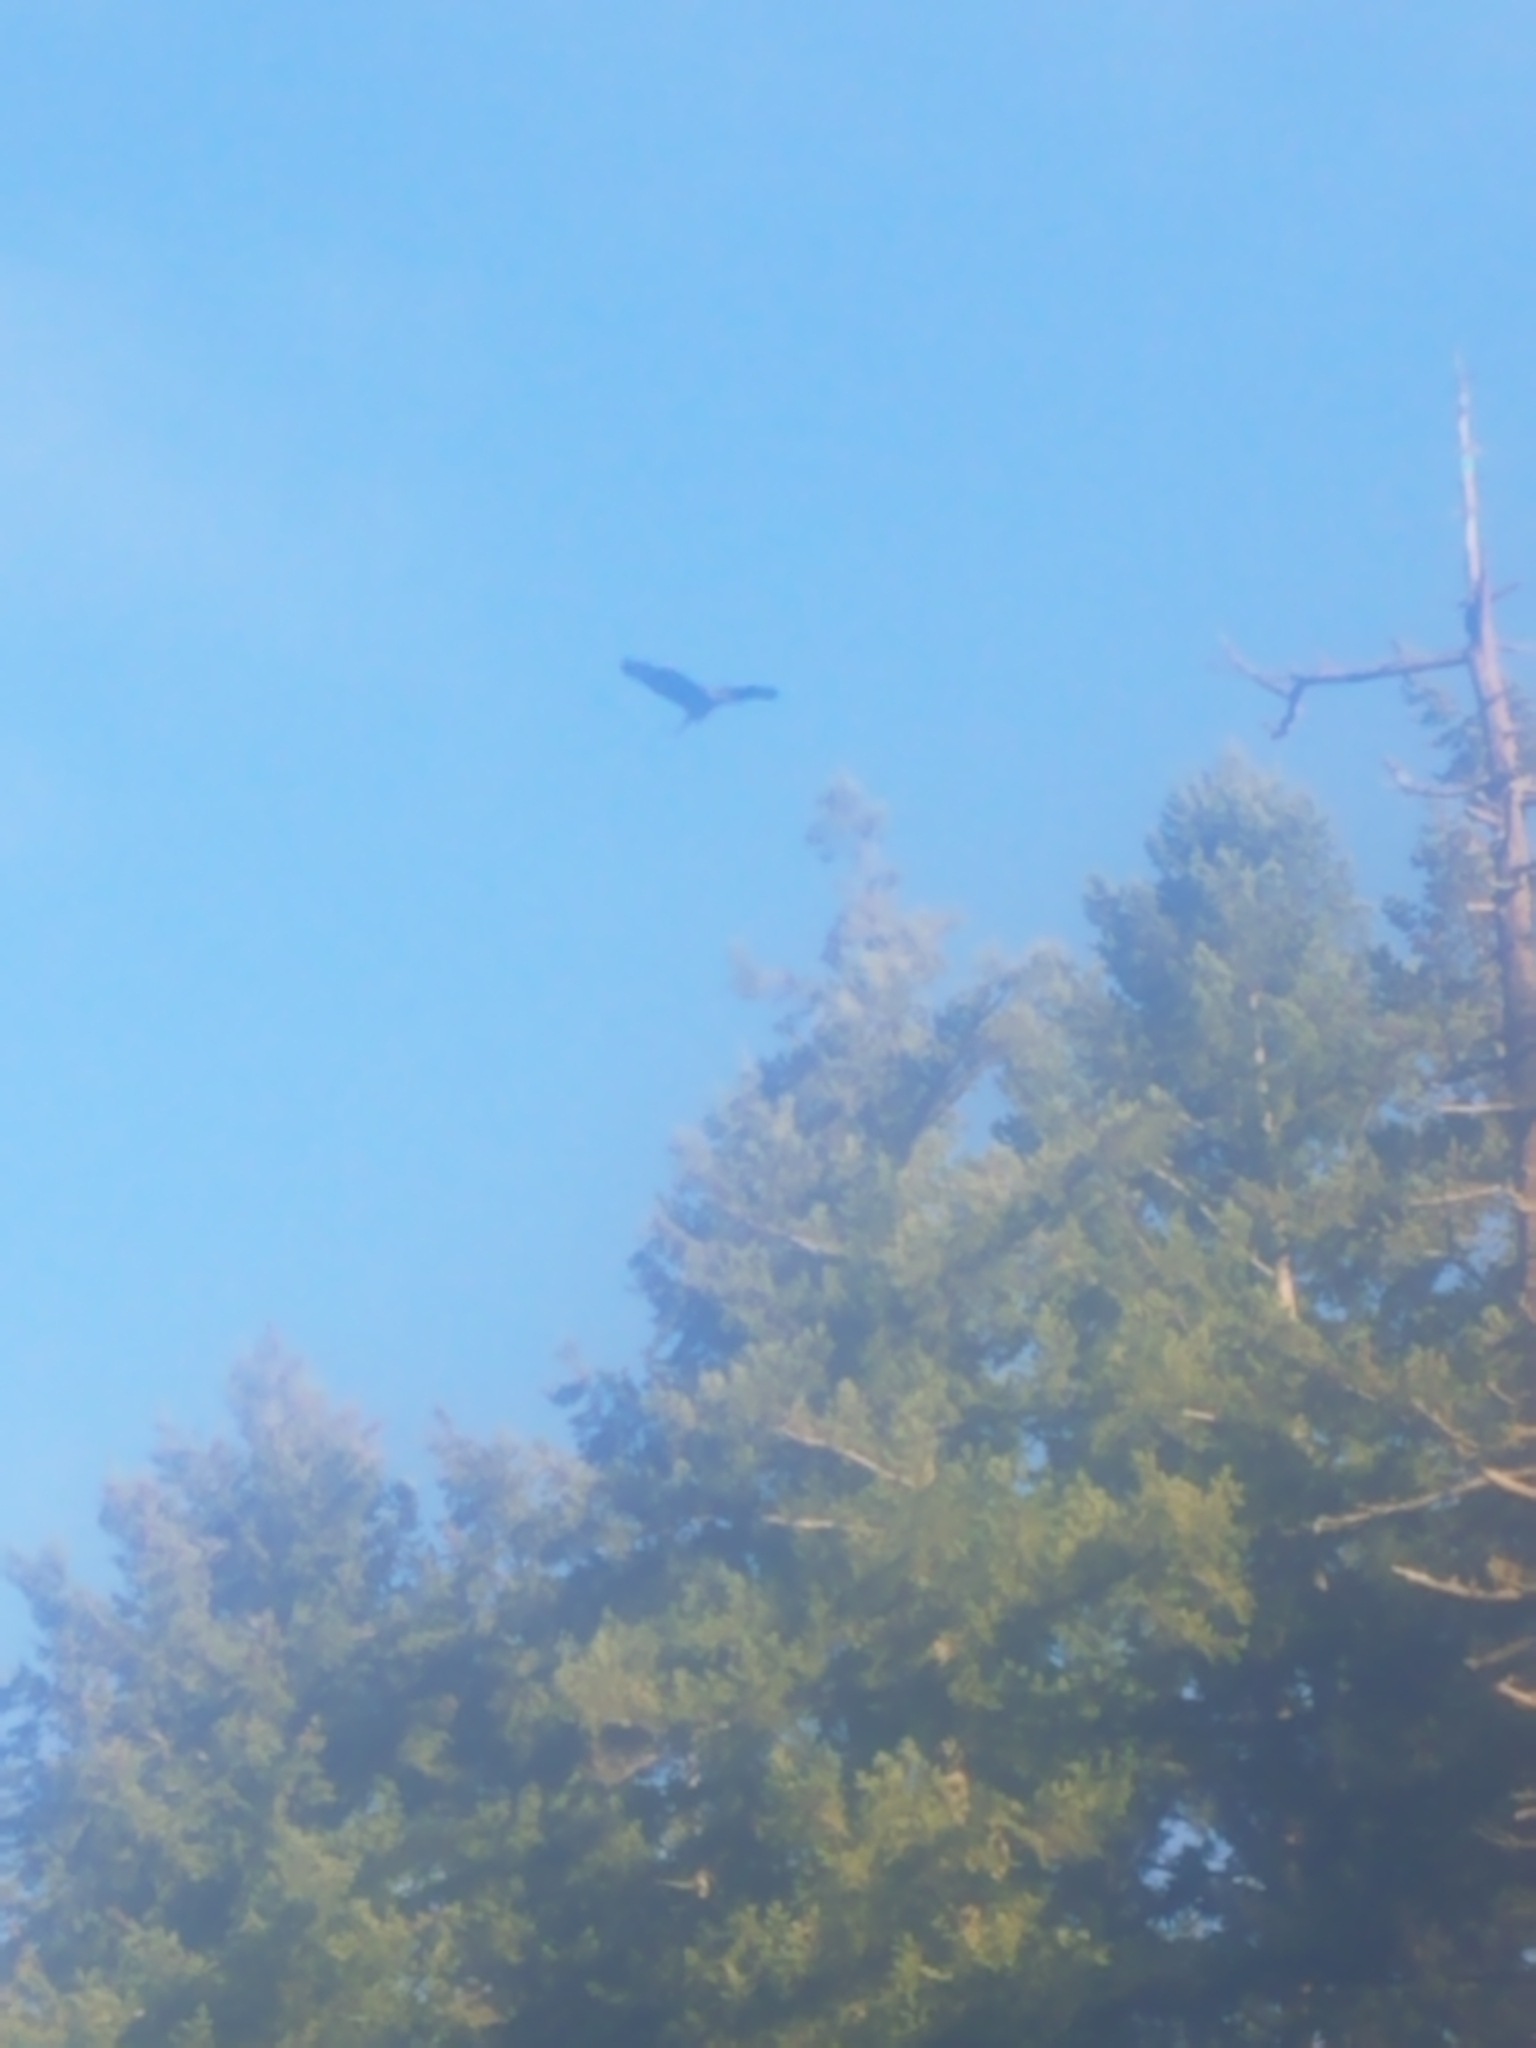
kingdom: Animalia
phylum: Chordata
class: Aves
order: Pelecaniformes
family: Ardeidae
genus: Ardea
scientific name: Ardea herodias
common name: Great blue heron
